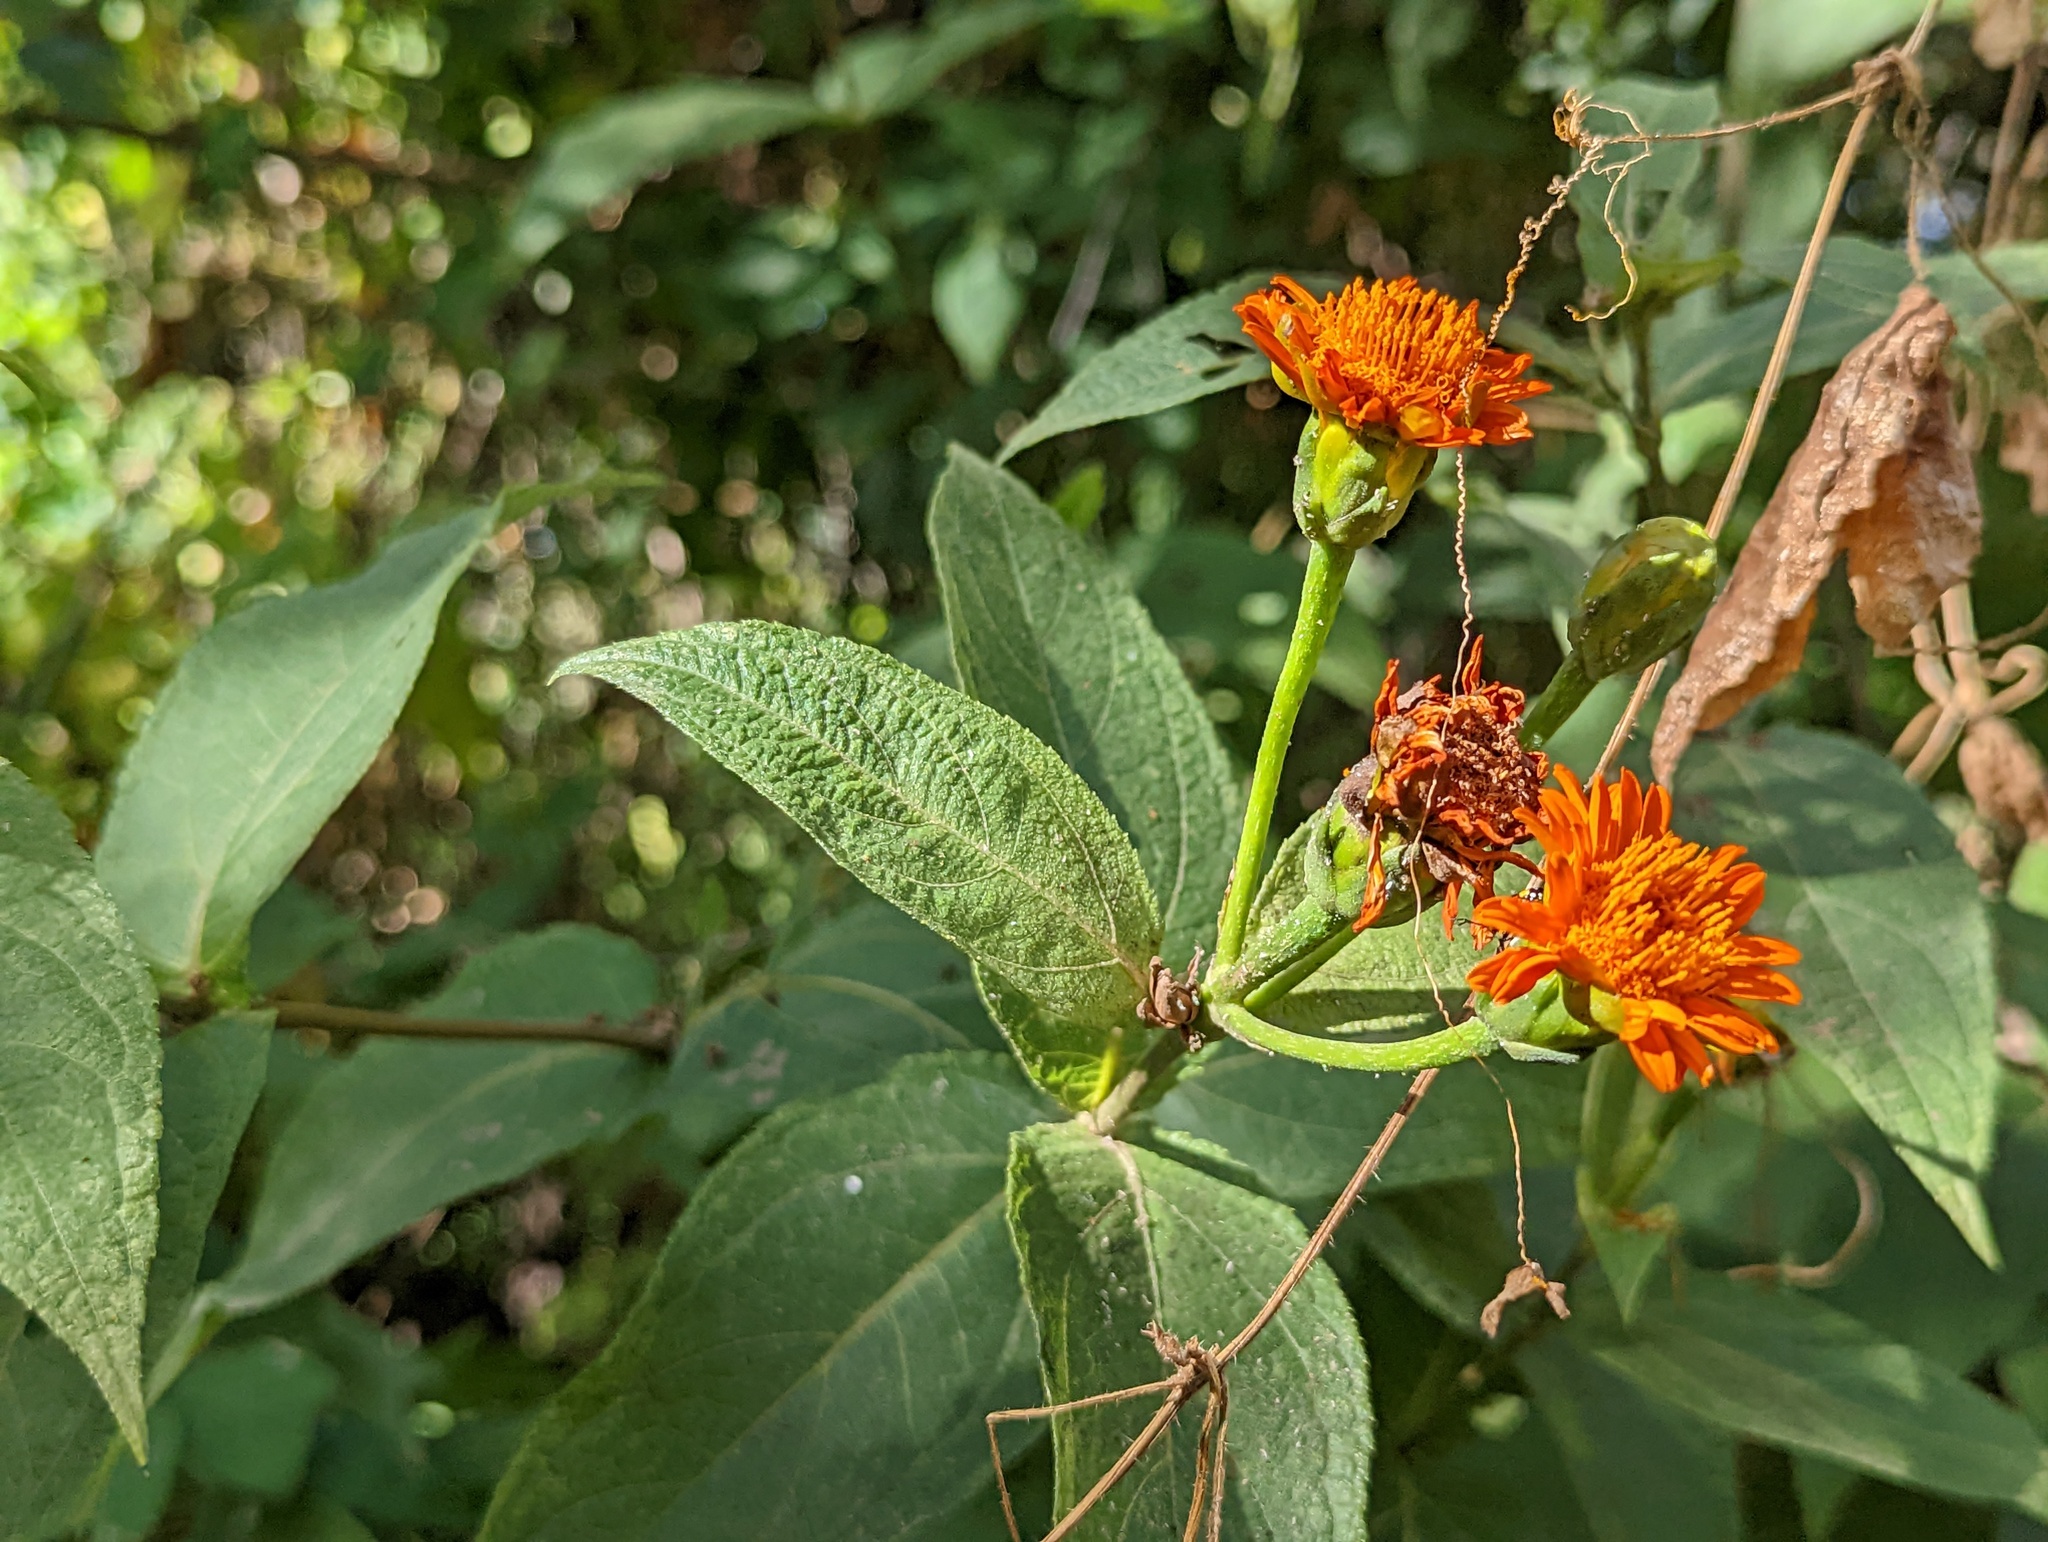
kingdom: Plantae
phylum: Tracheophyta
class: Magnoliopsida
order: Asterales
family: Asteraceae
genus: Verbesina
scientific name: Verbesina crocata
